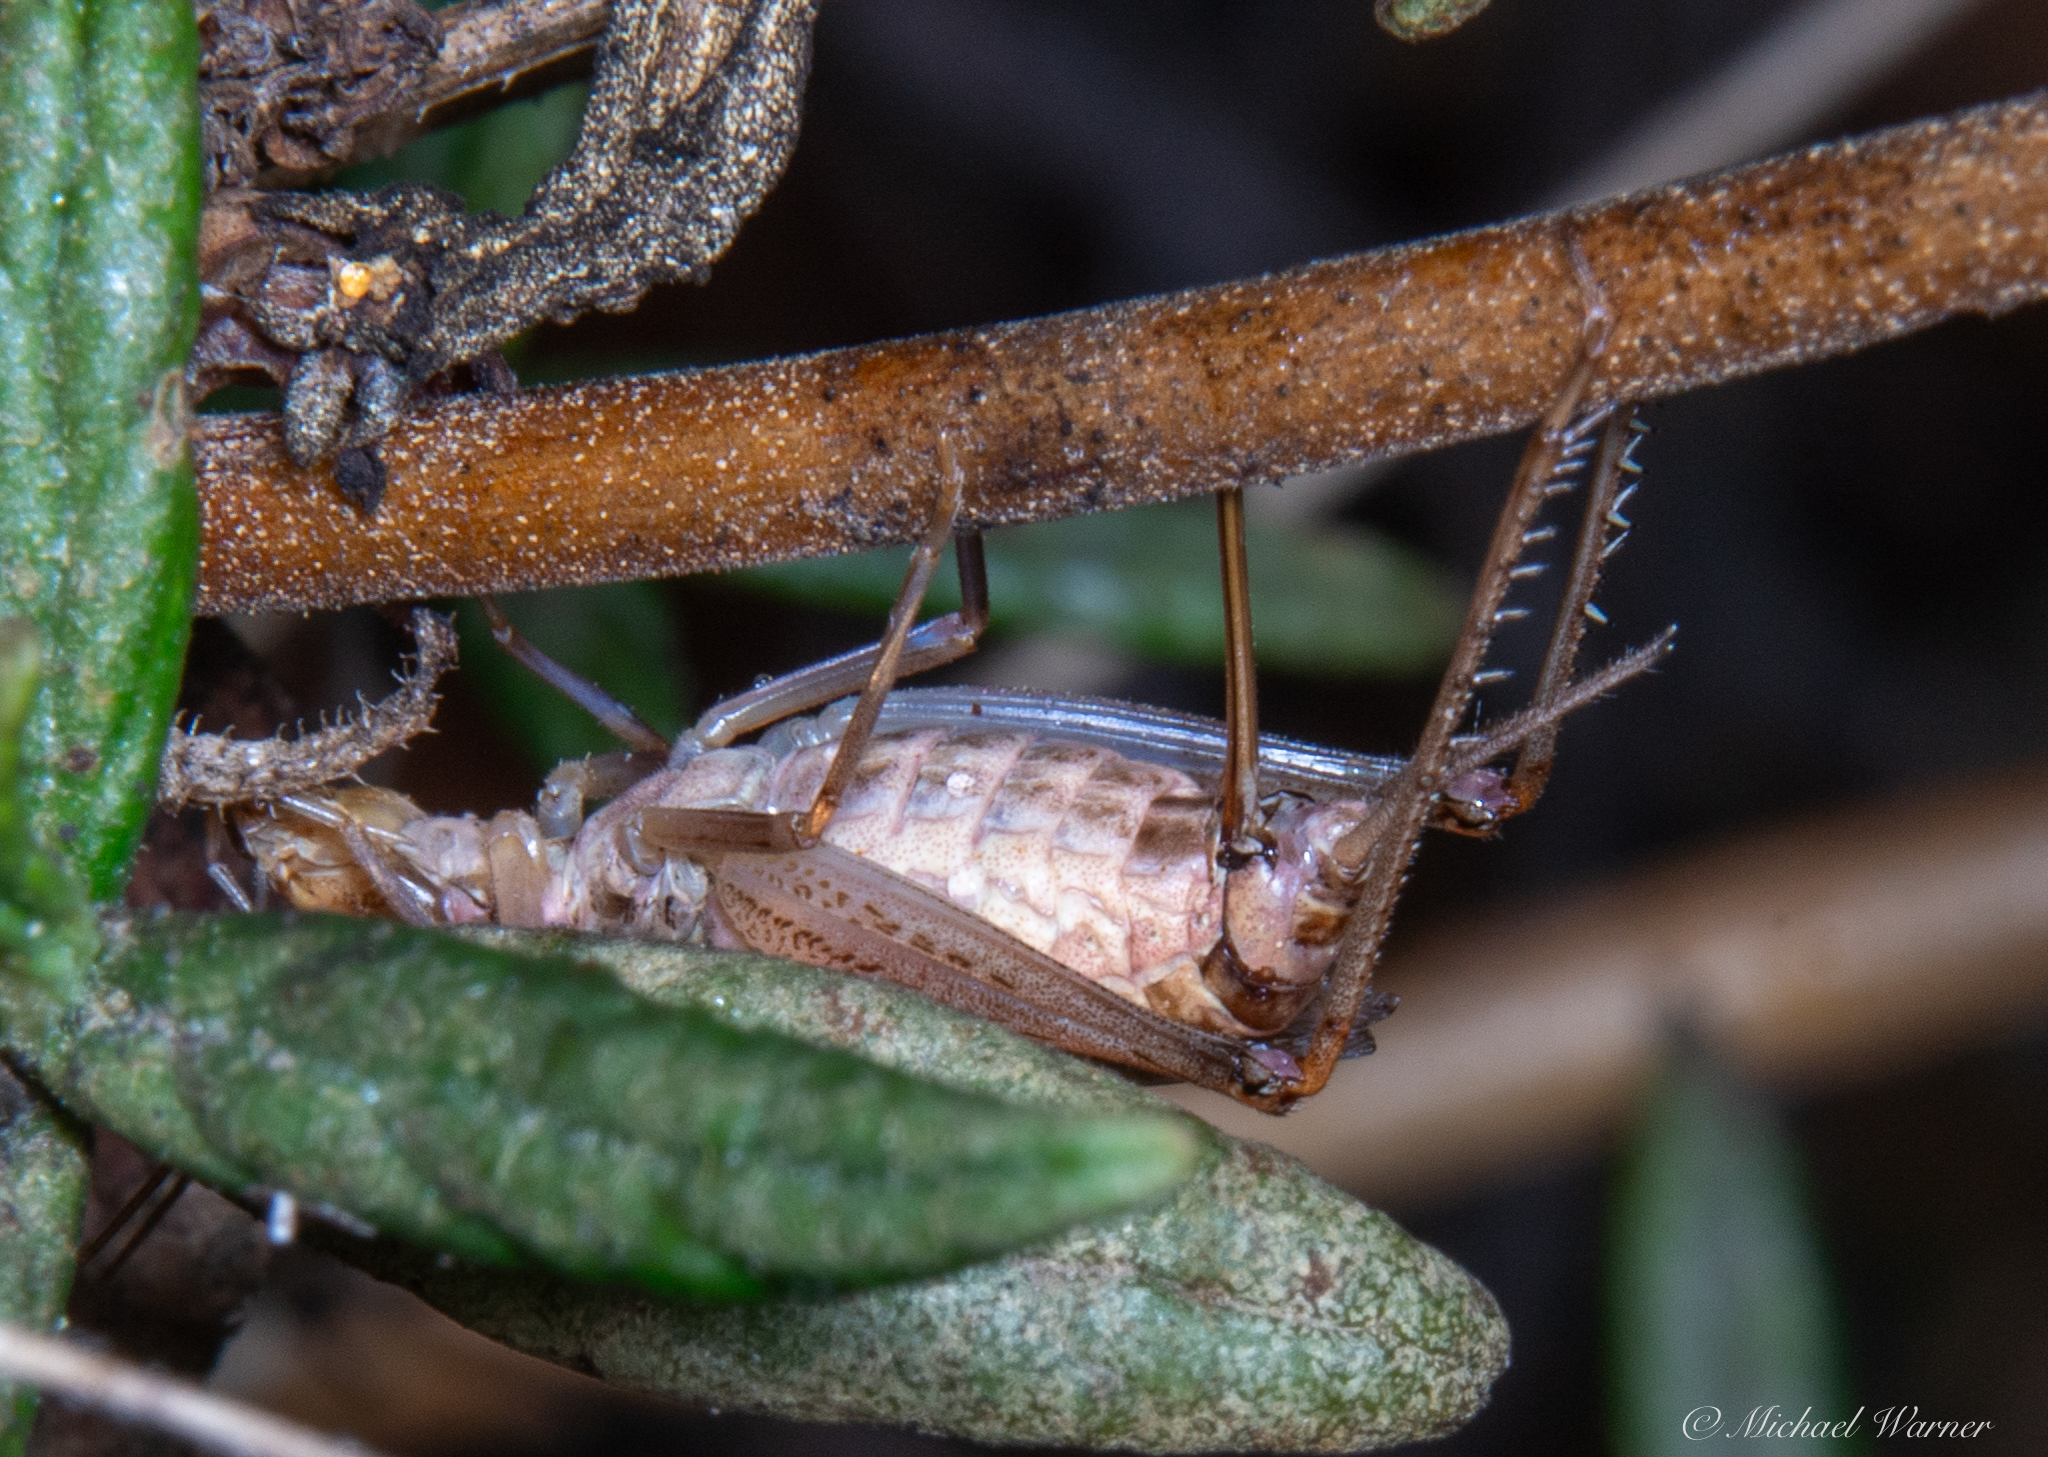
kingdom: Animalia
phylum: Arthropoda
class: Insecta
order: Orthoptera
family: Gryllidae
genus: Oecanthus
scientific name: Oecanthus californicus
